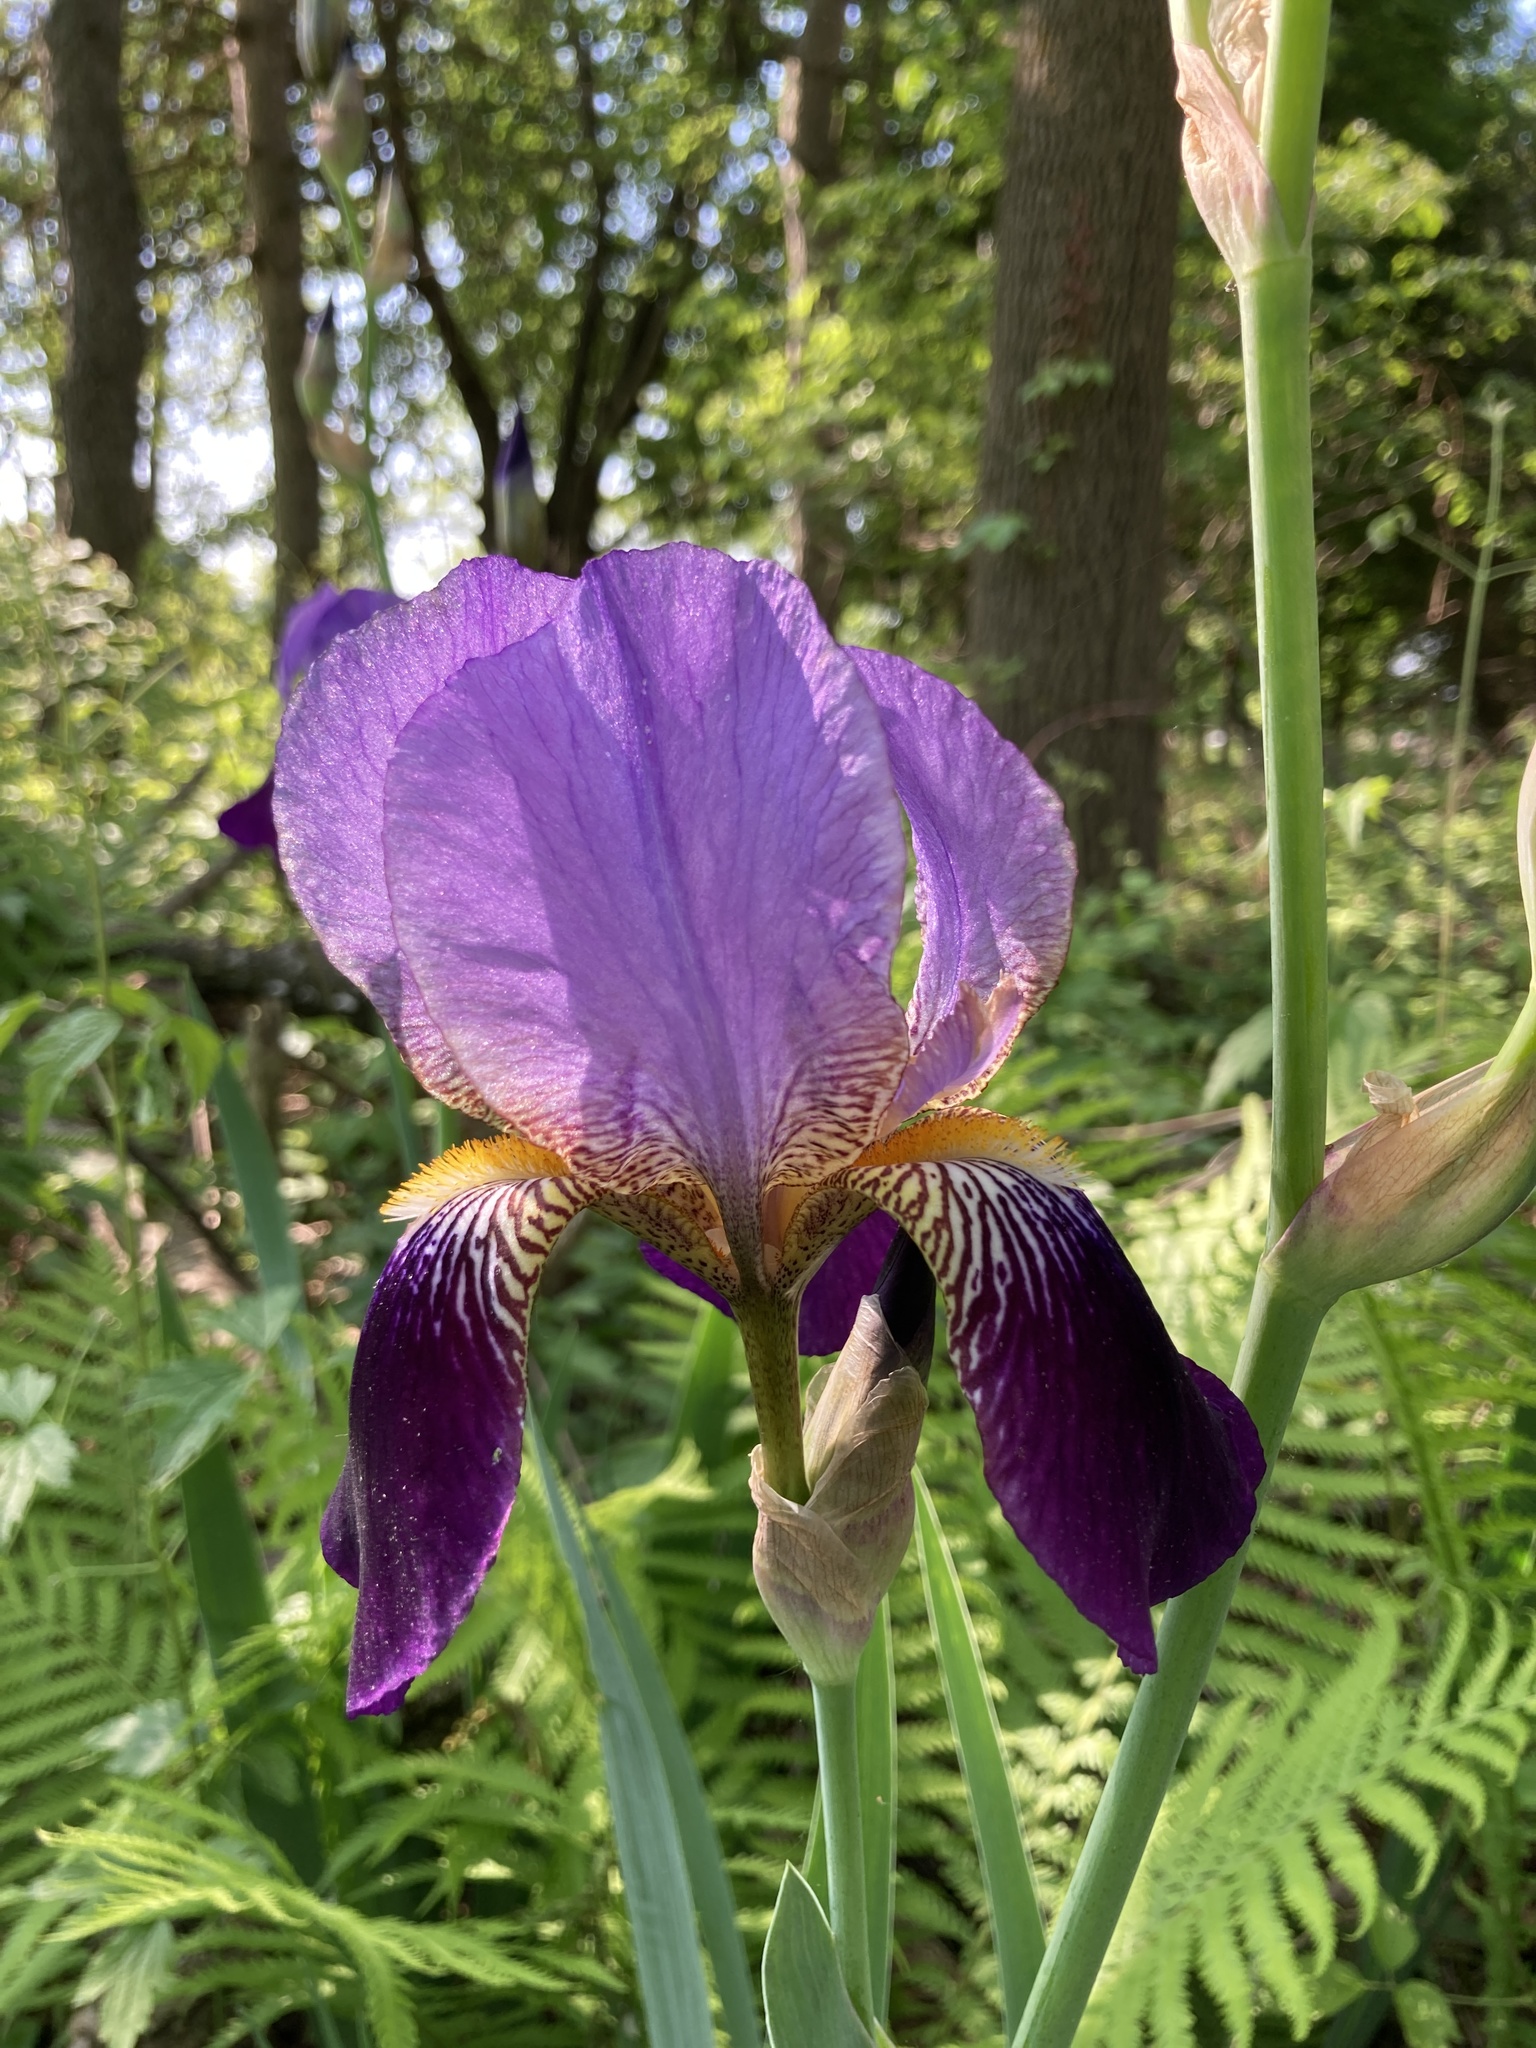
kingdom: Plantae
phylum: Tracheophyta
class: Liliopsida
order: Asparagales
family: Iridaceae
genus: Iris
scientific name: Iris hybrida
